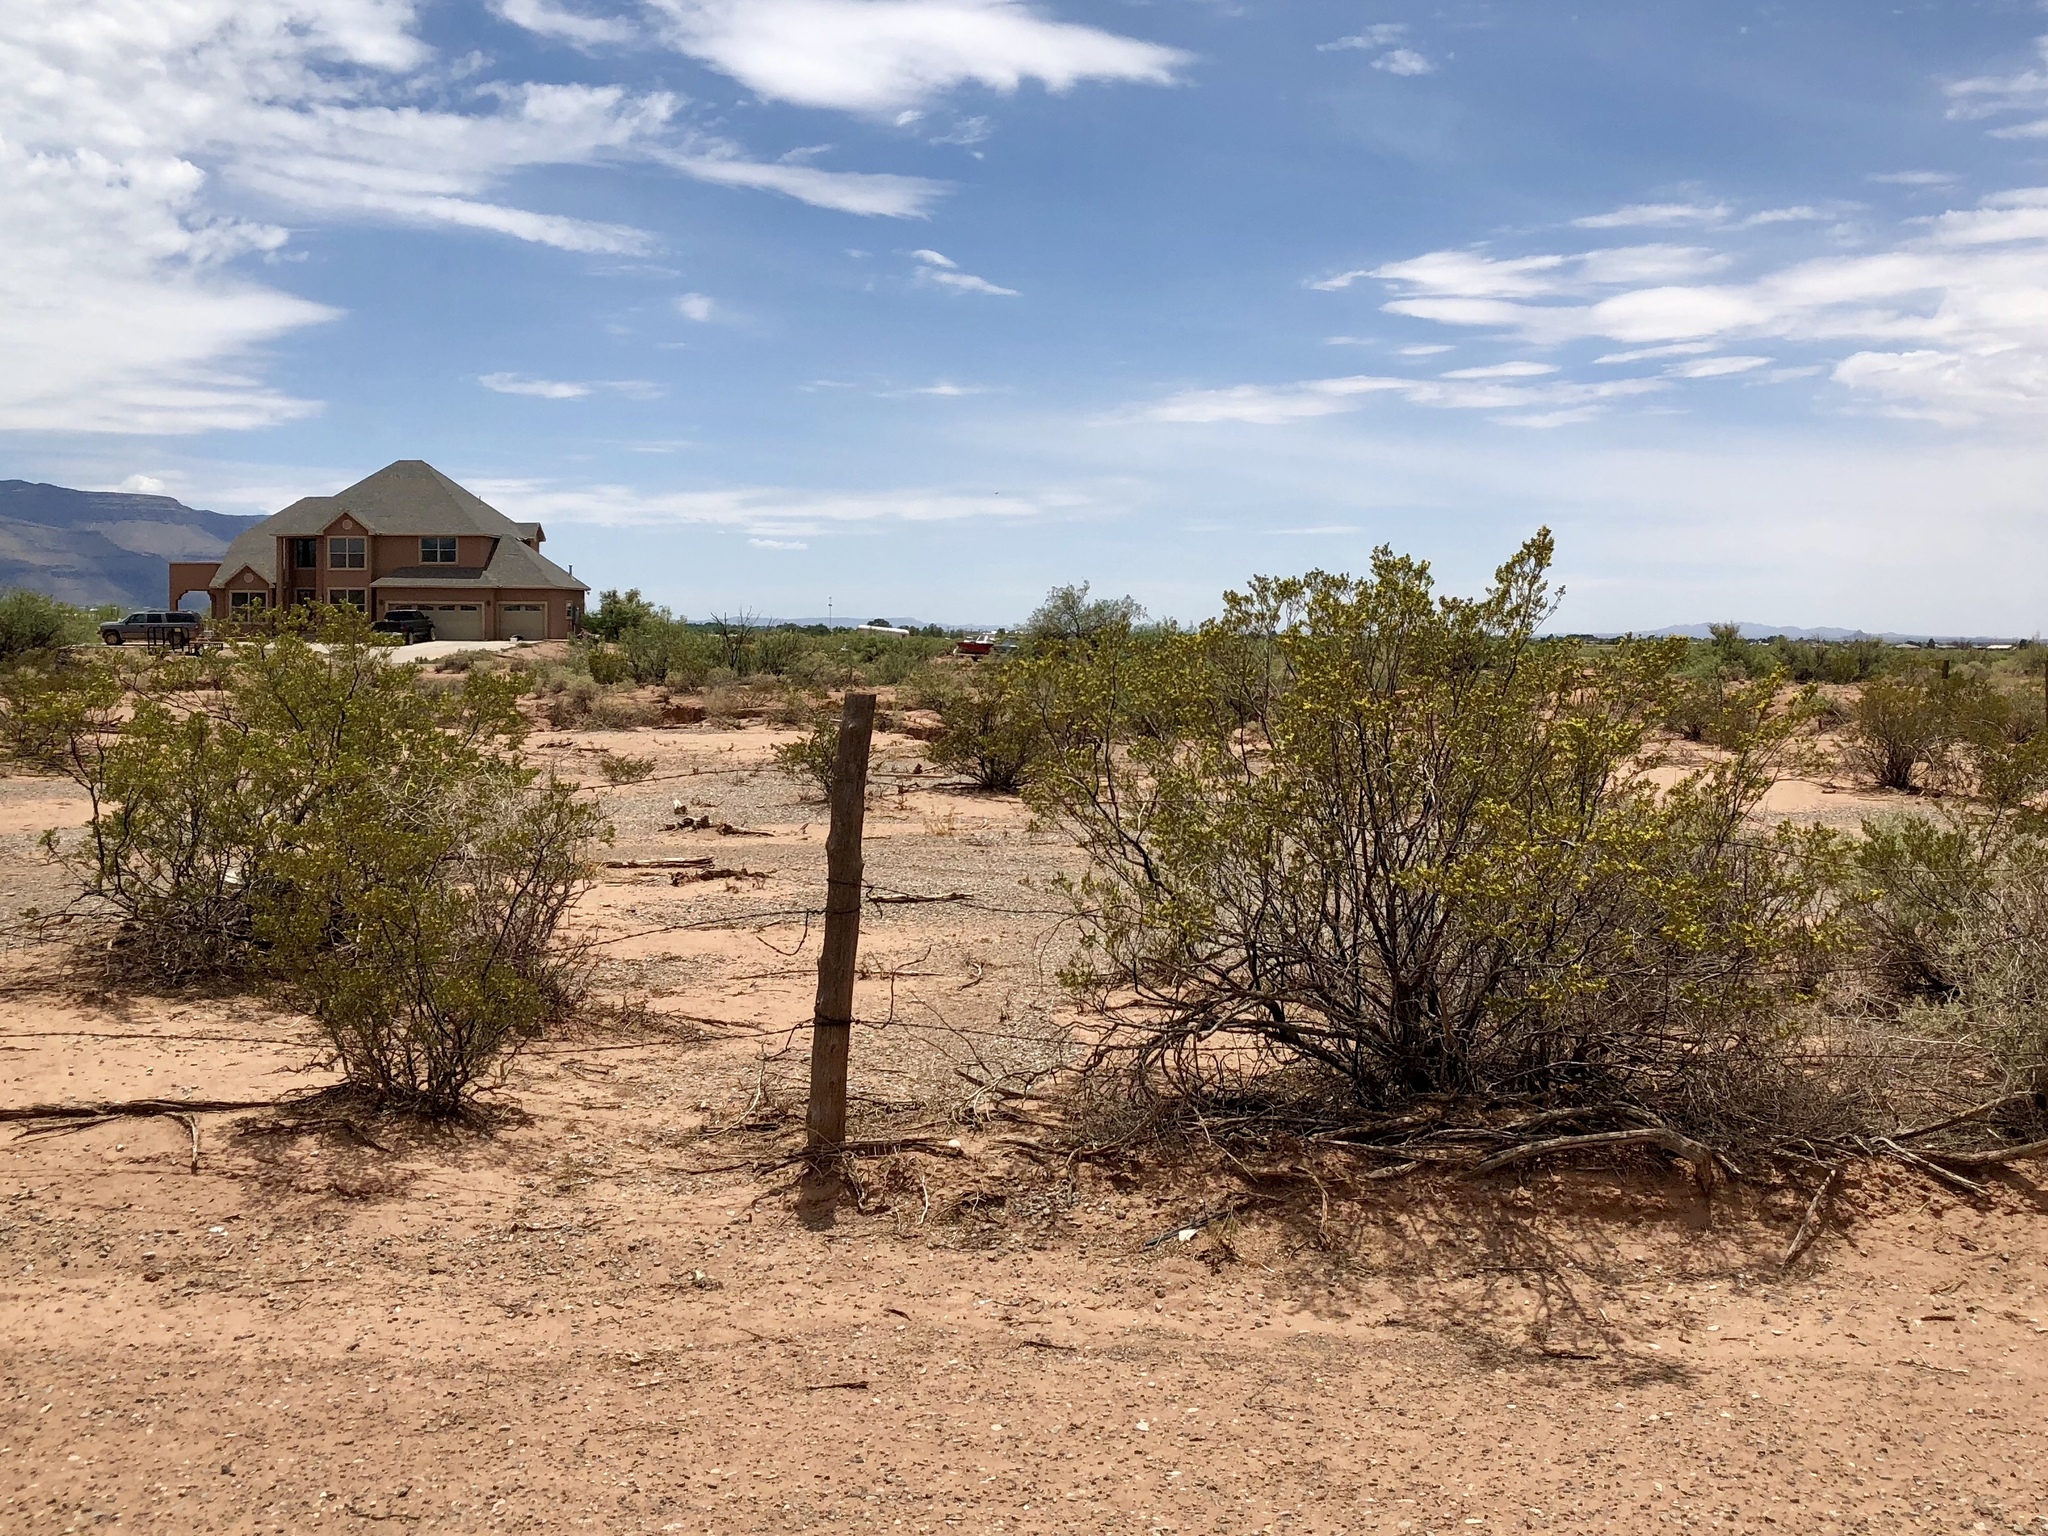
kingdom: Plantae
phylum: Tracheophyta
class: Magnoliopsida
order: Zygophyllales
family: Zygophyllaceae
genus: Larrea
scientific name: Larrea tridentata
